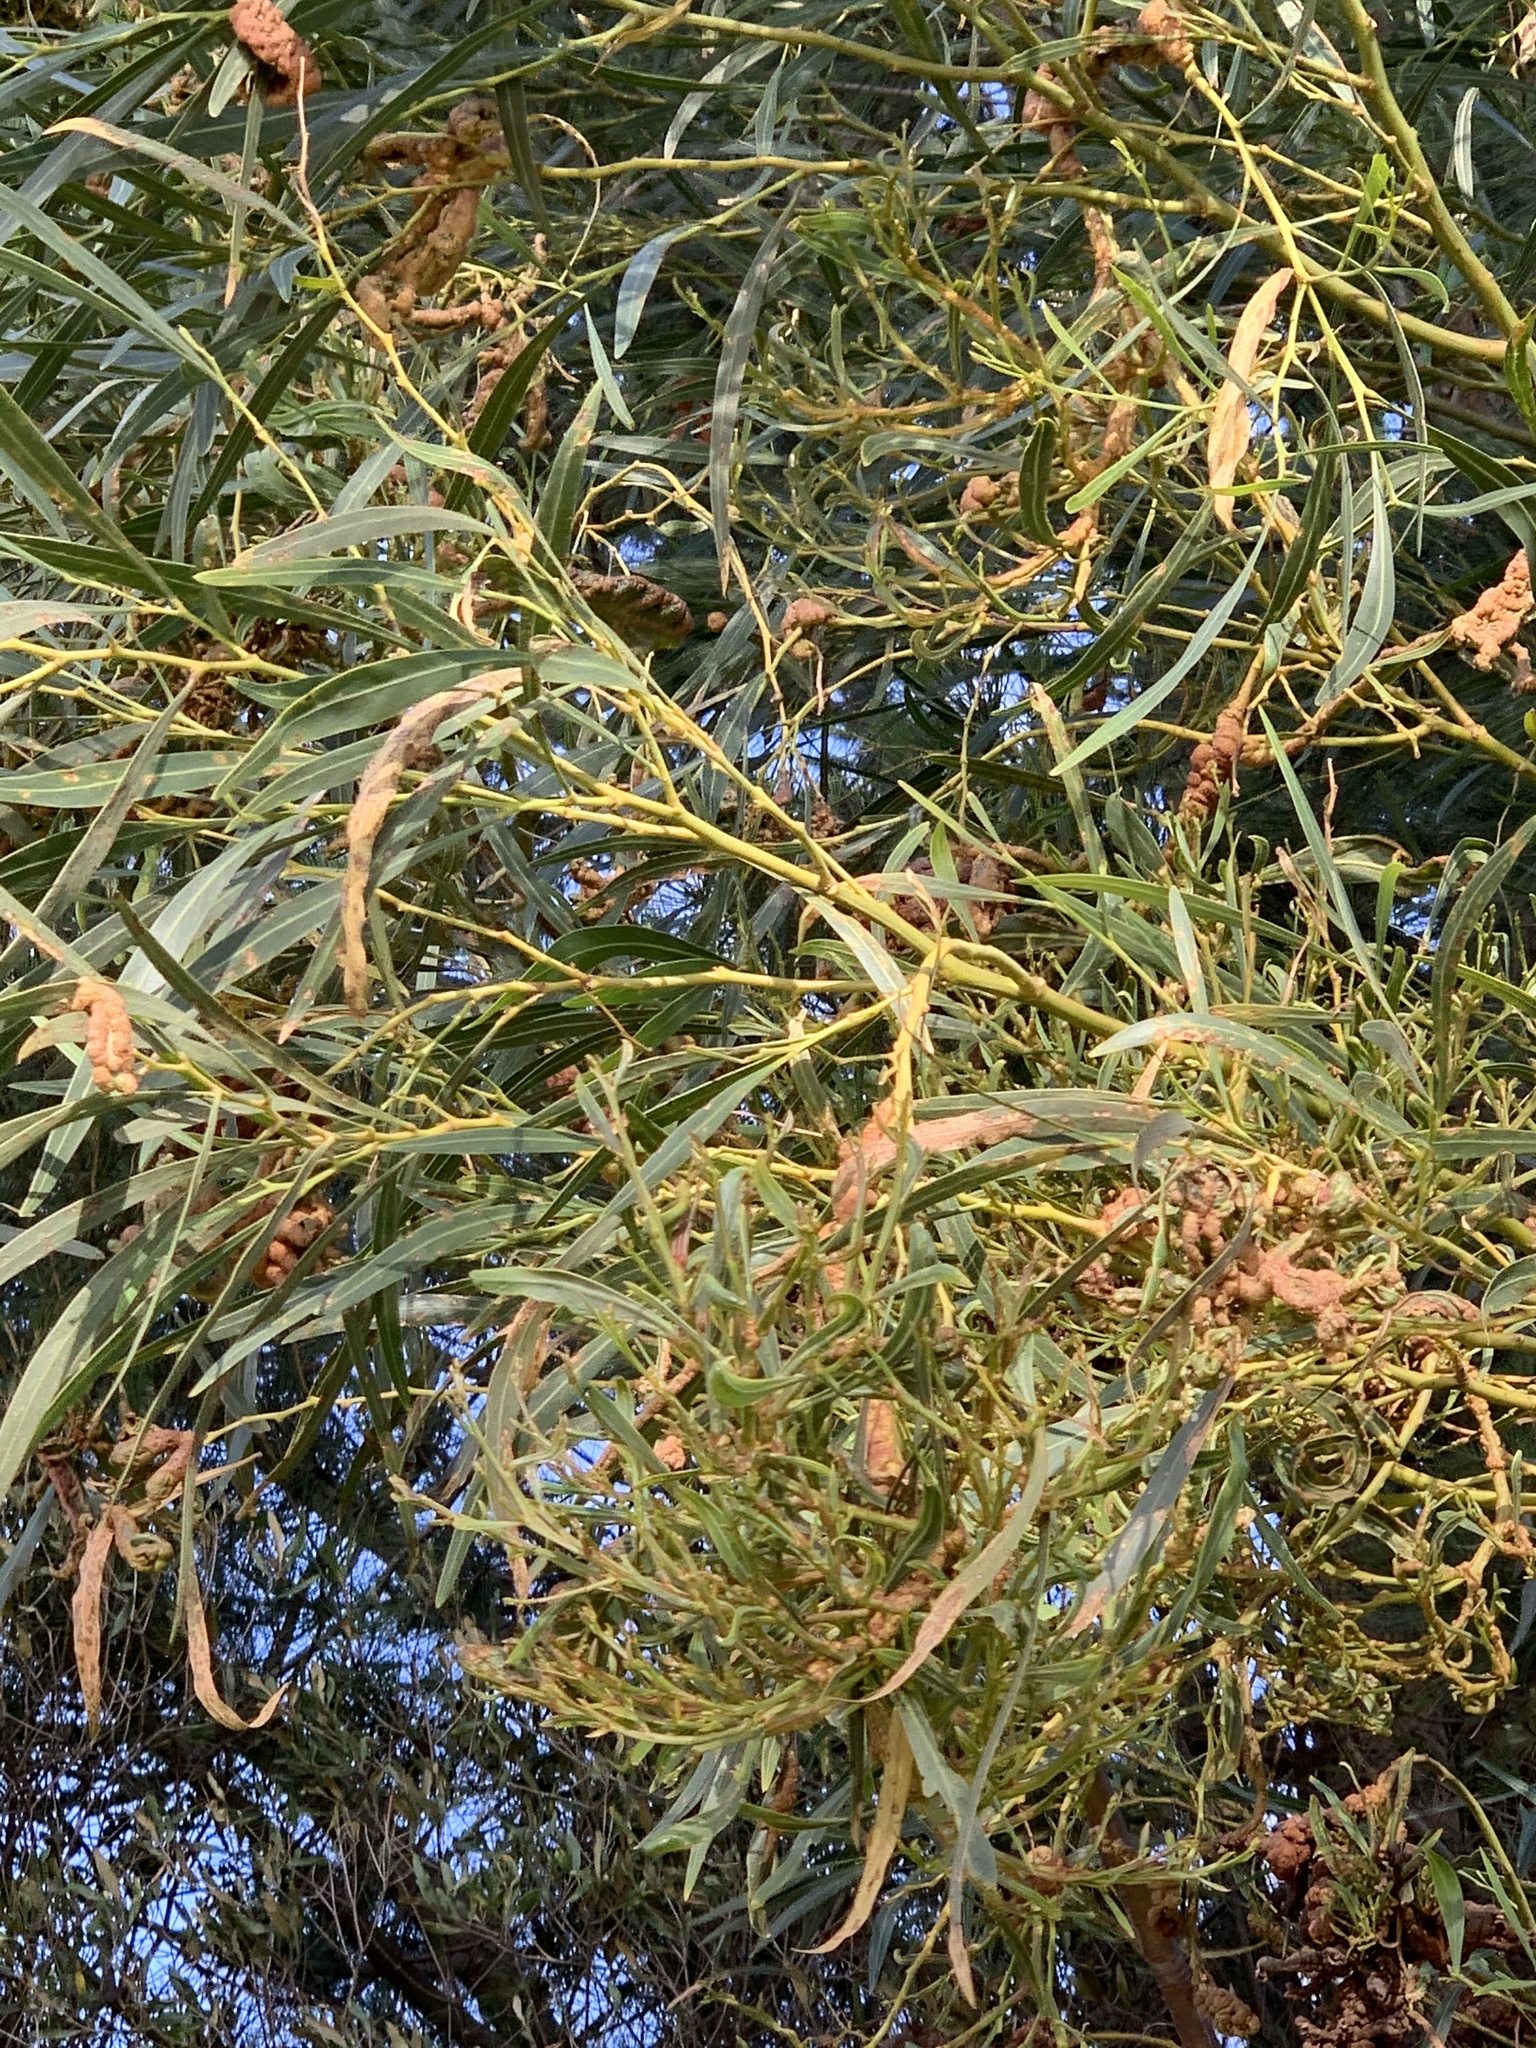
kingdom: Plantae
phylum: Tracheophyta
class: Magnoliopsida
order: Fabales
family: Fabaceae
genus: Acacia
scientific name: Acacia saligna
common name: Orange wattle
